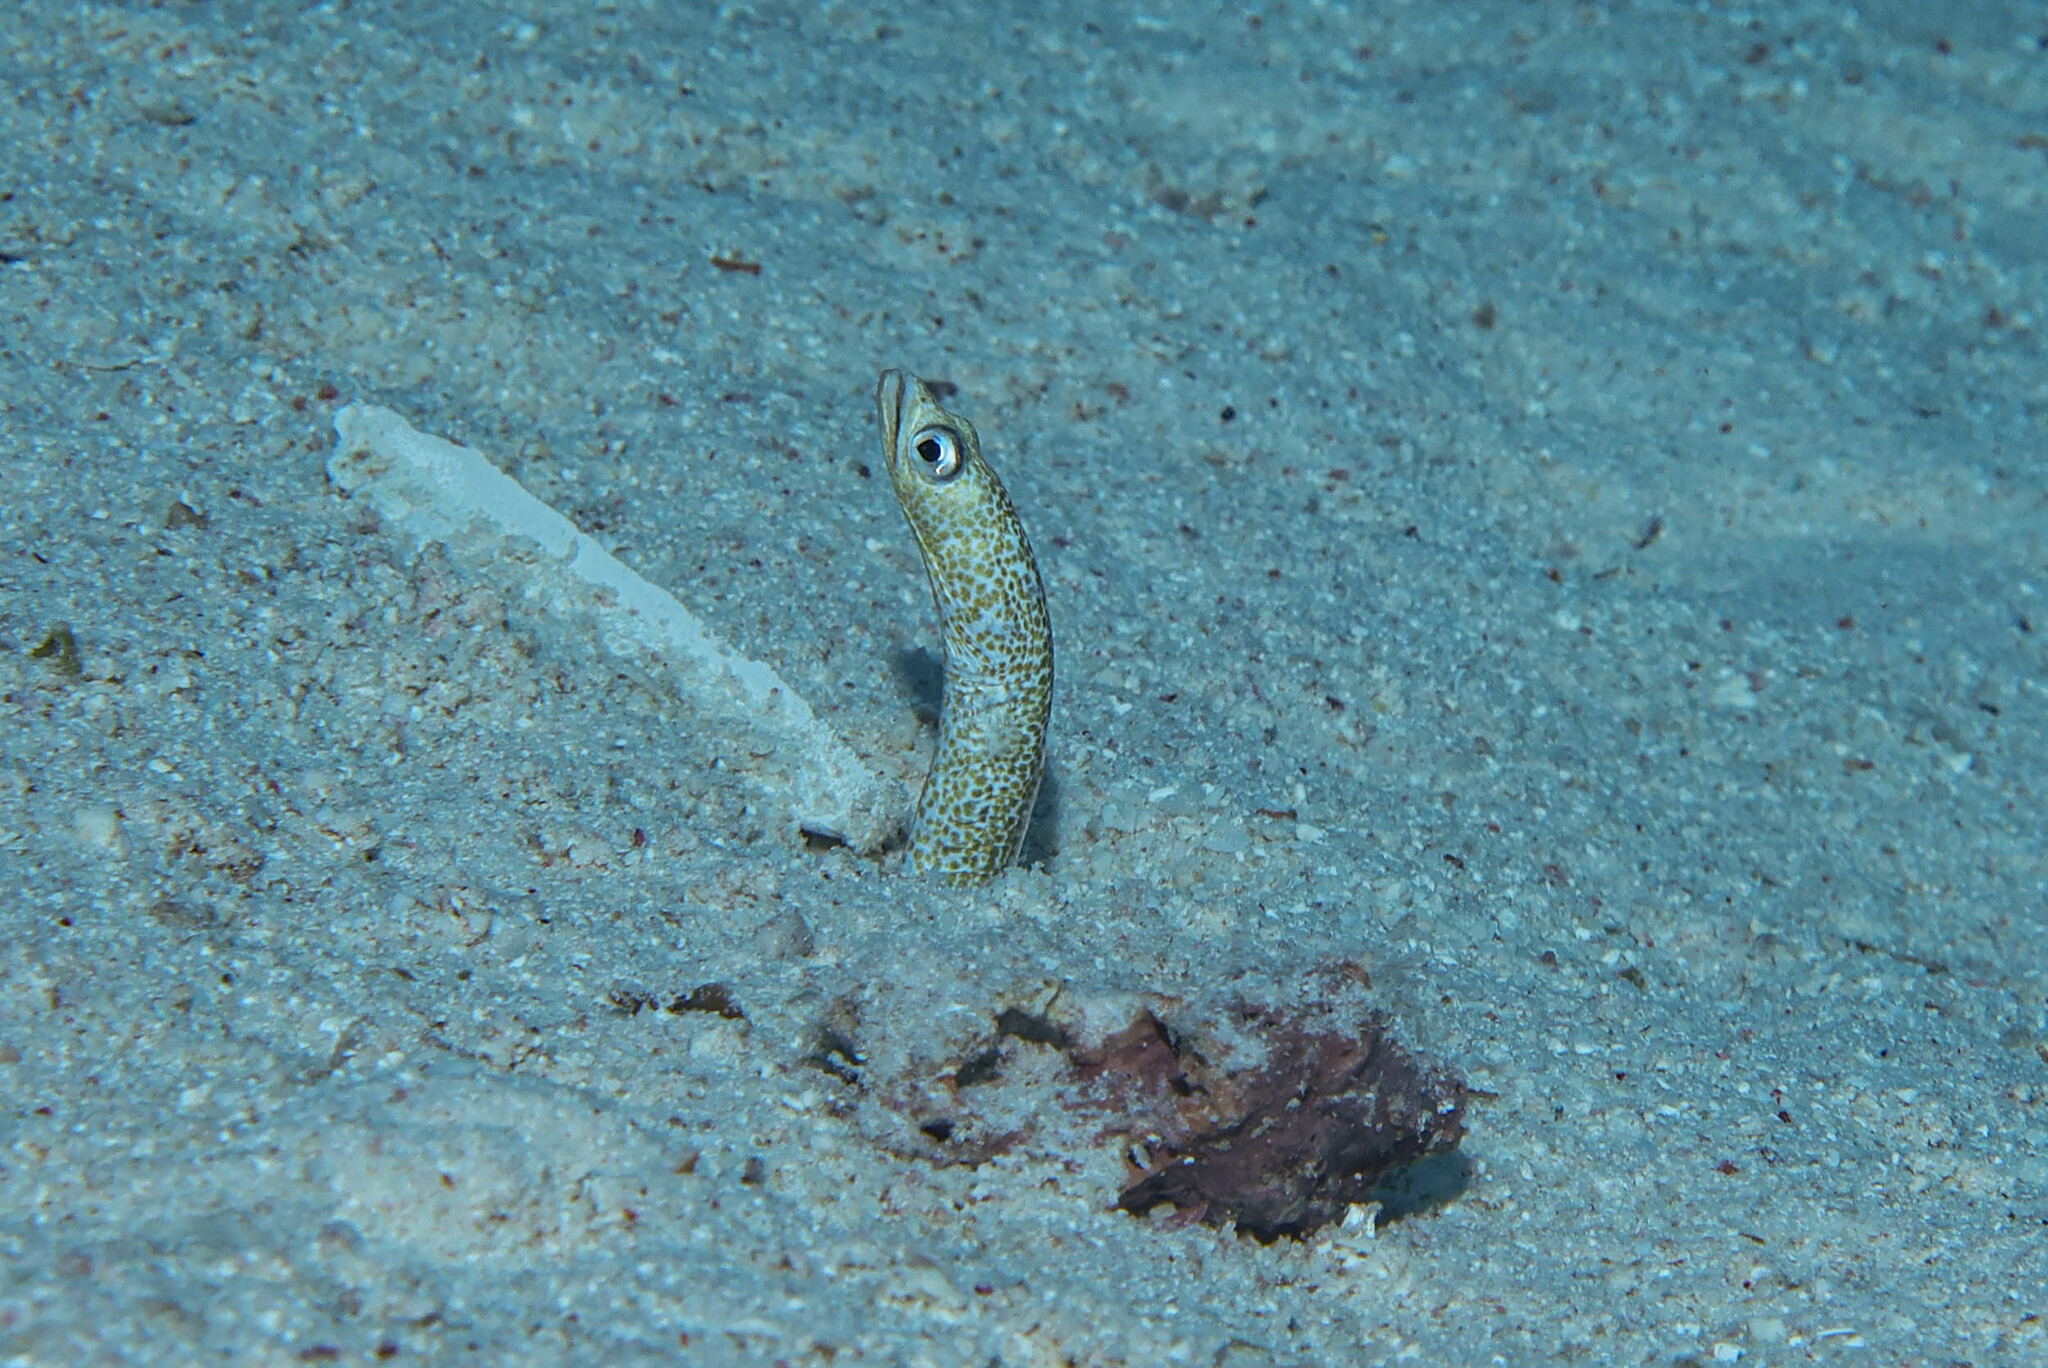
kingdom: Animalia
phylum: Chordata
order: Anguilliformes
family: Congridae
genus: Gorgasia
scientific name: Gorgasia sillneri
